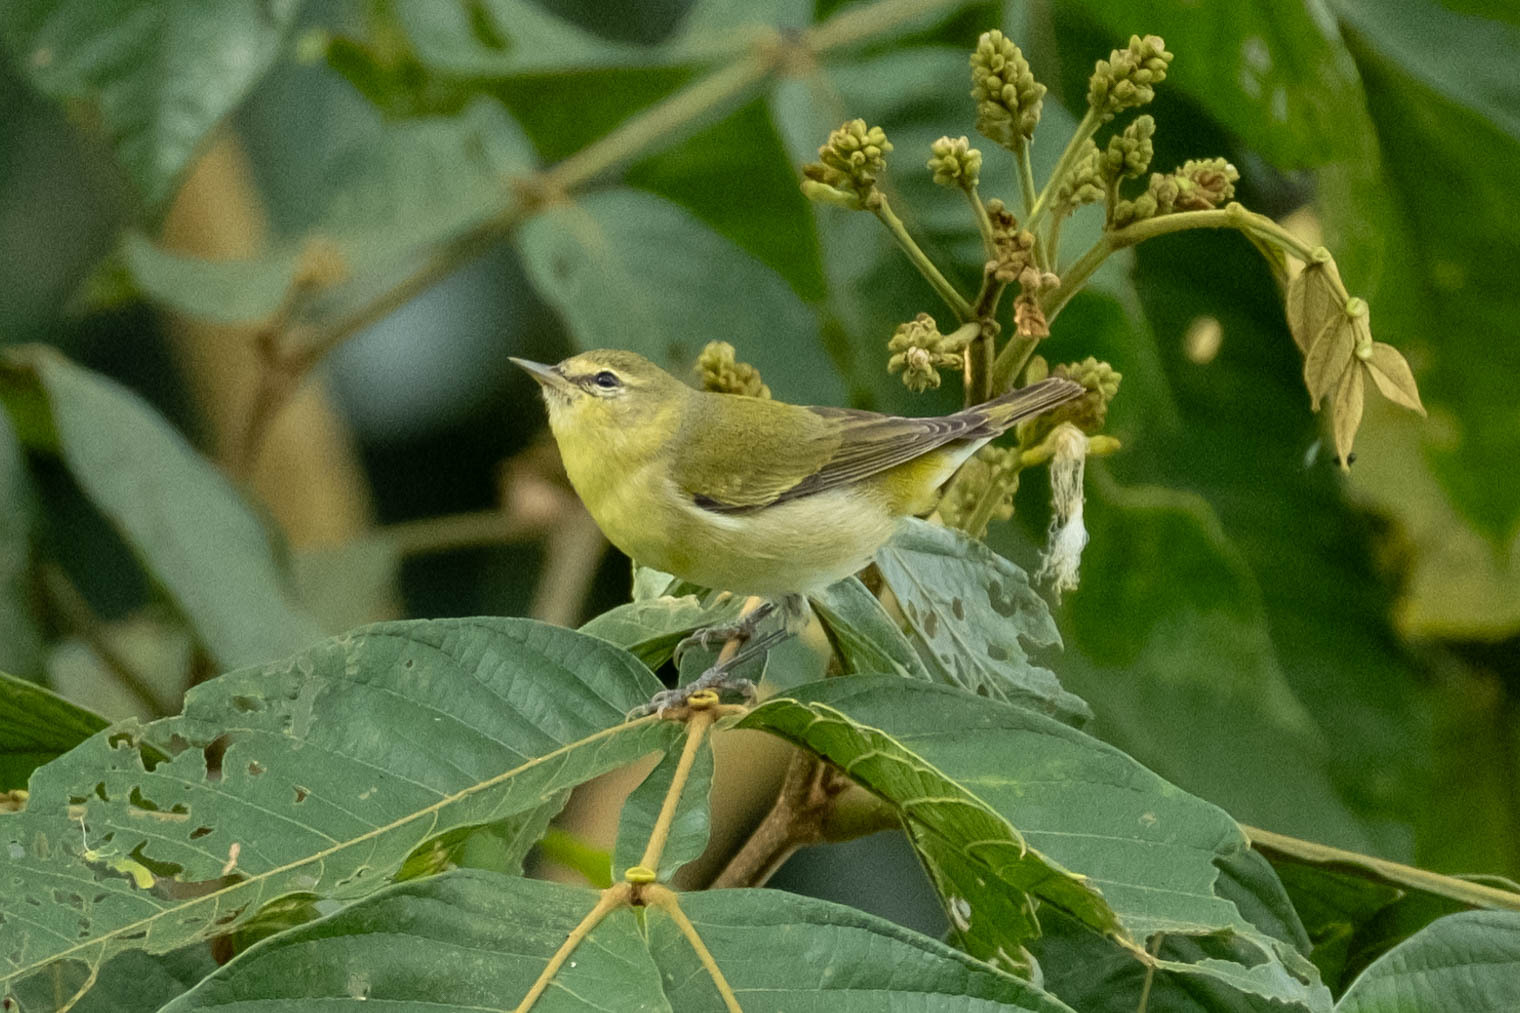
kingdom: Animalia
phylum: Chordata
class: Aves
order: Passeriformes
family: Parulidae
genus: Leiothlypis
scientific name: Leiothlypis peregrina
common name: Tennessee warbler
